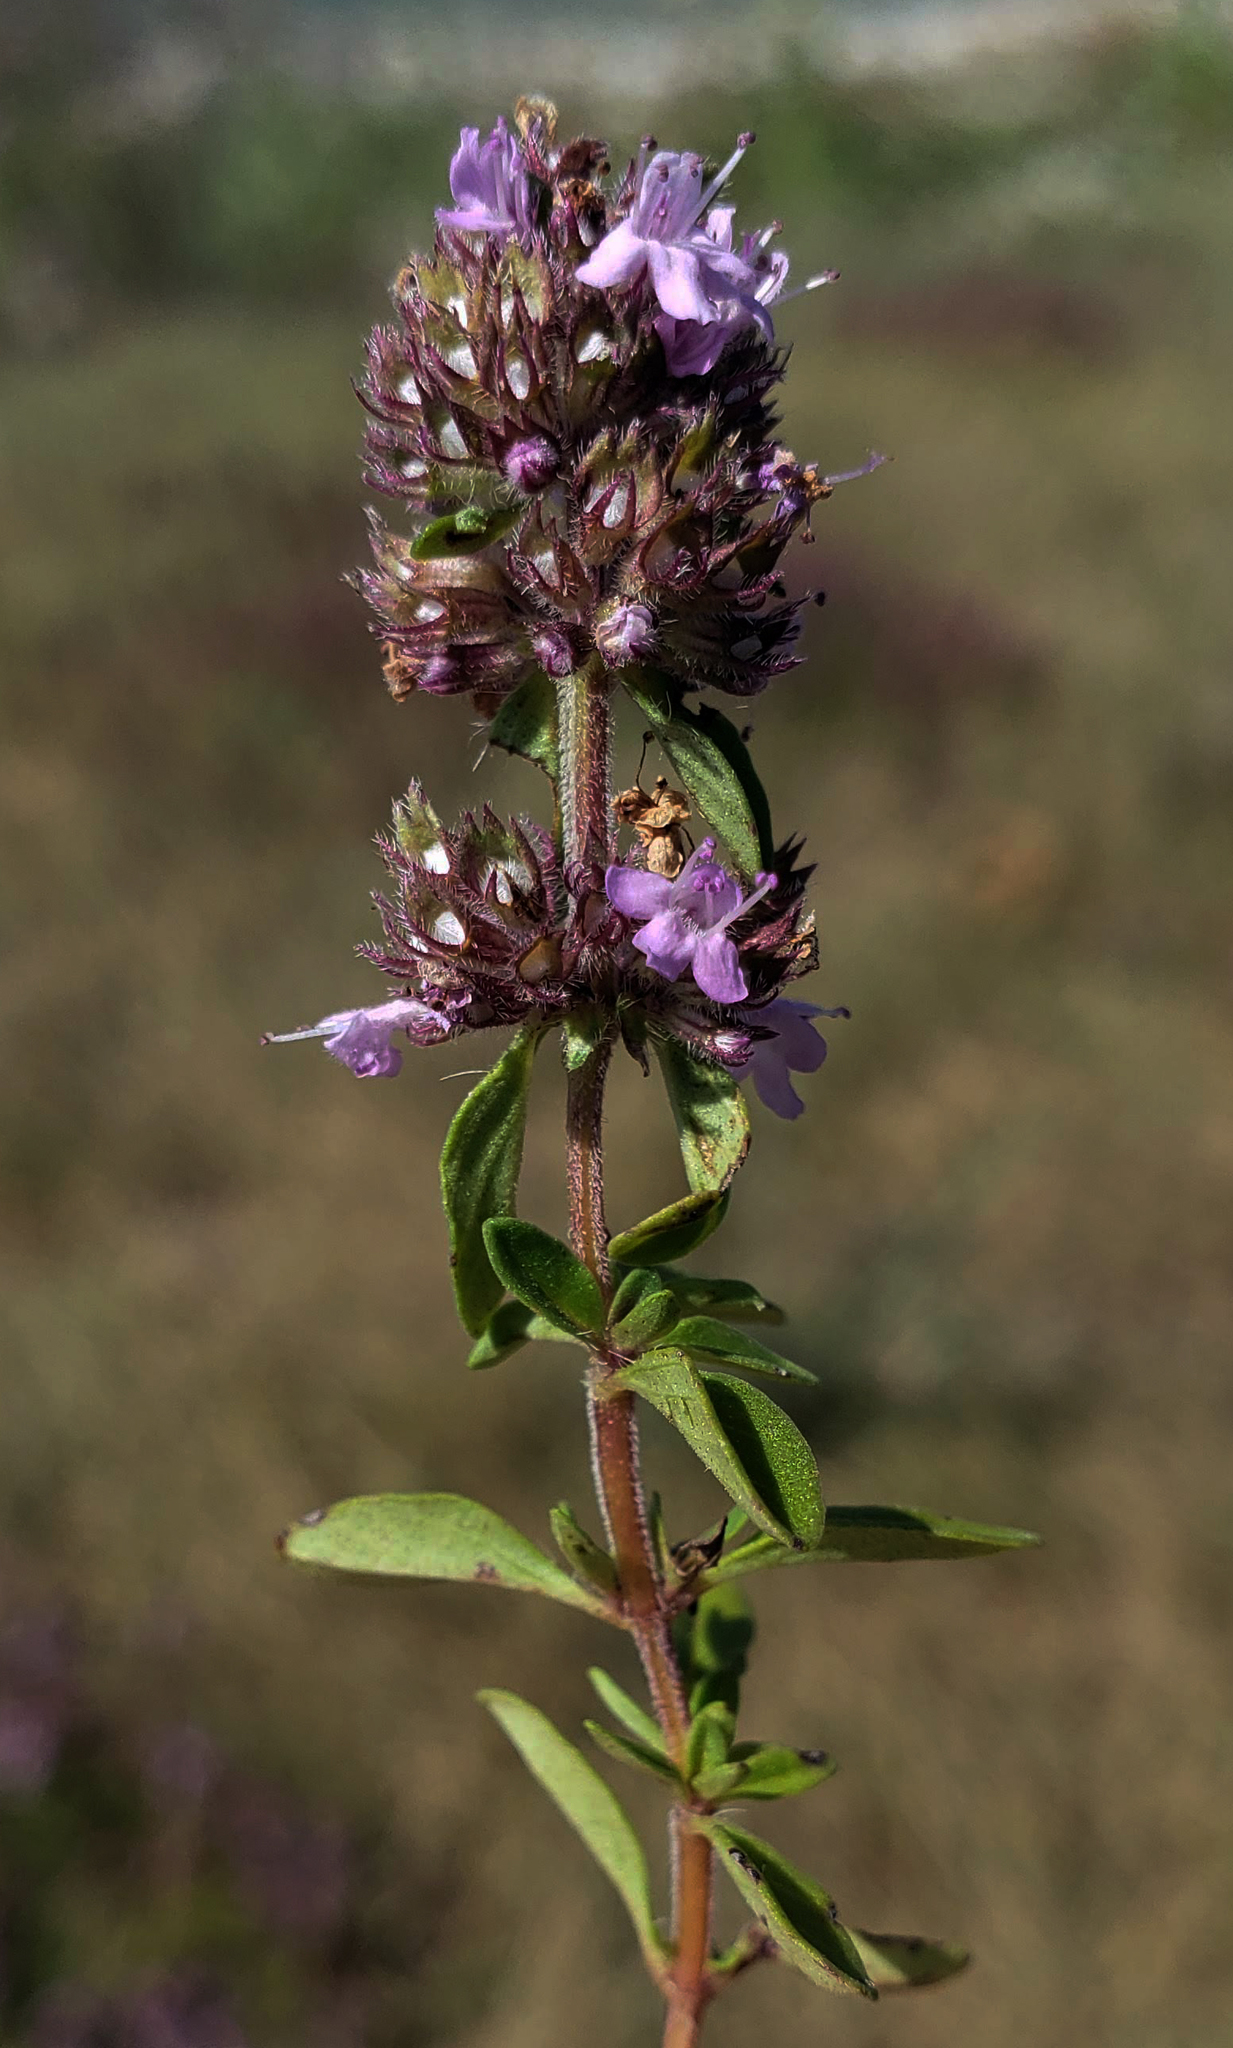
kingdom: Plantae
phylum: Tracheophyta
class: Magnoliopsida
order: Lamiales
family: Lamiaceae
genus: Thymus
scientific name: Thymus pulegioides
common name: Large thyme
